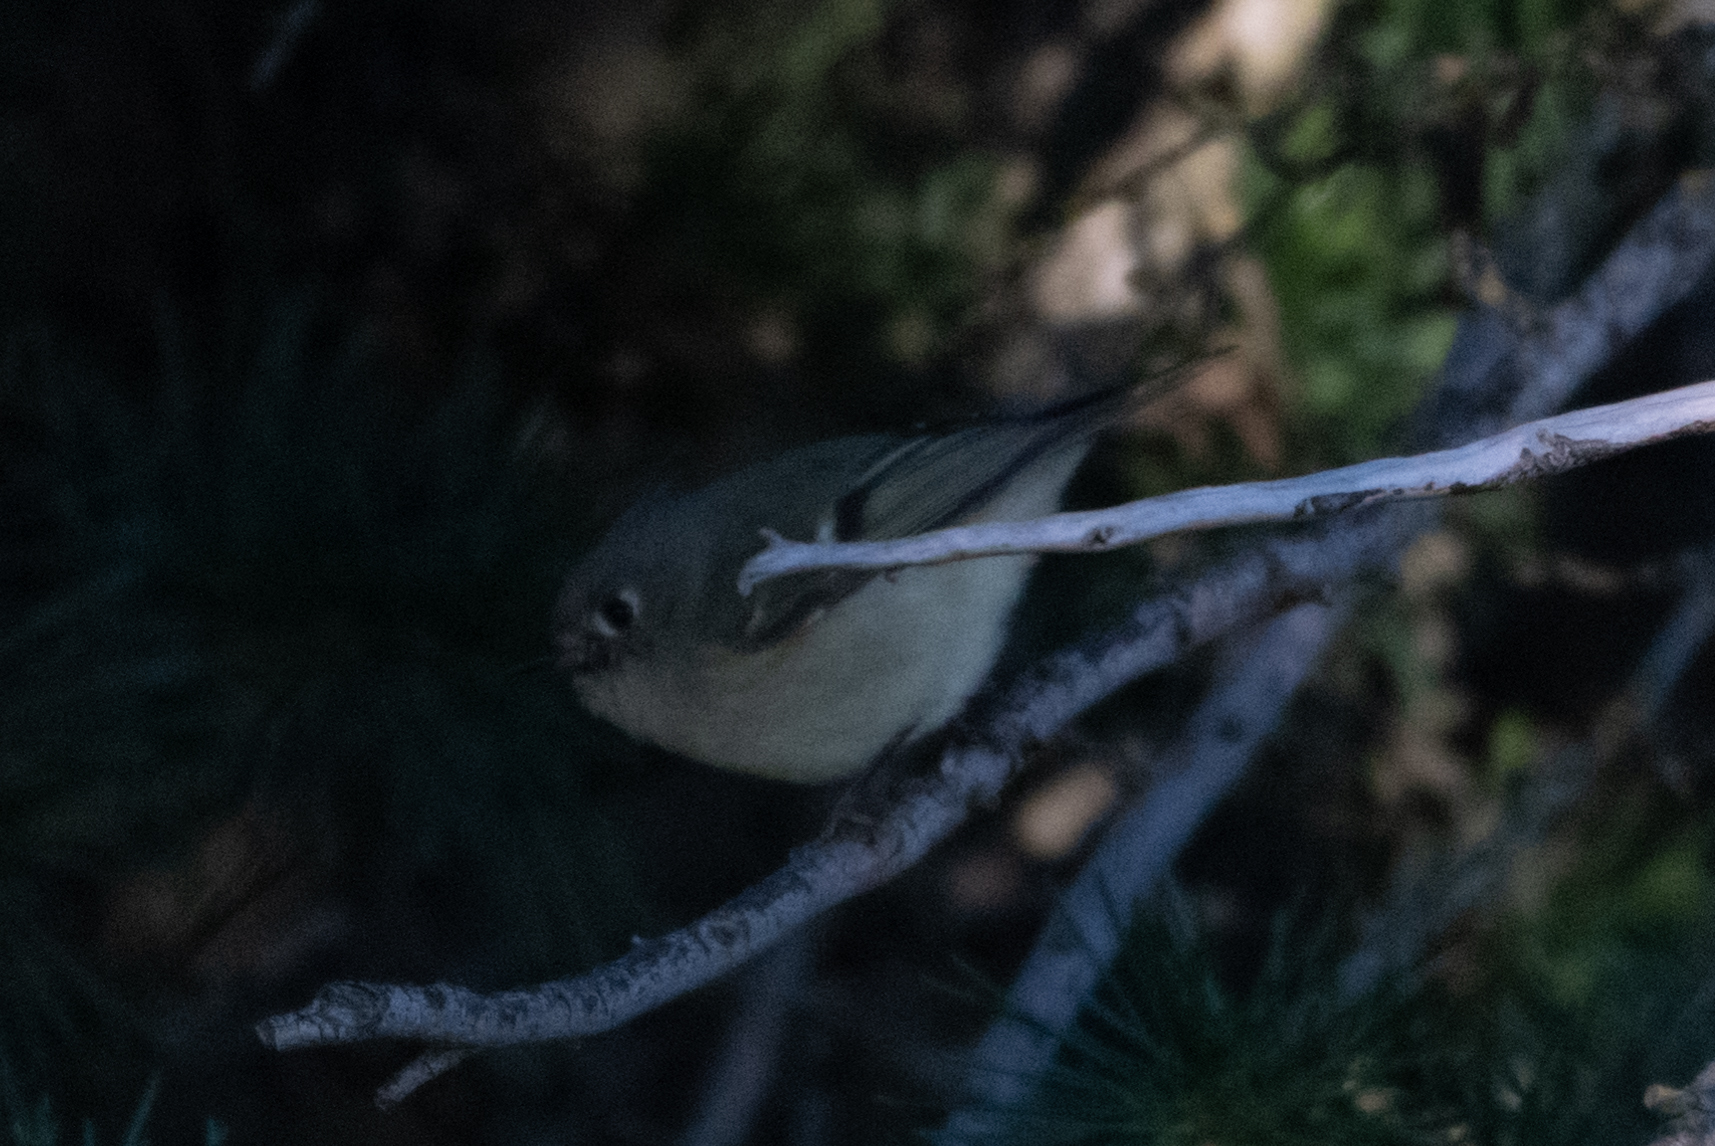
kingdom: Animalia
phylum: Chordata
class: Aves
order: Passeriformes
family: Regulidae
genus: Regulus
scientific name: Regulus calendula
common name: Ruby-crowned kinglet
